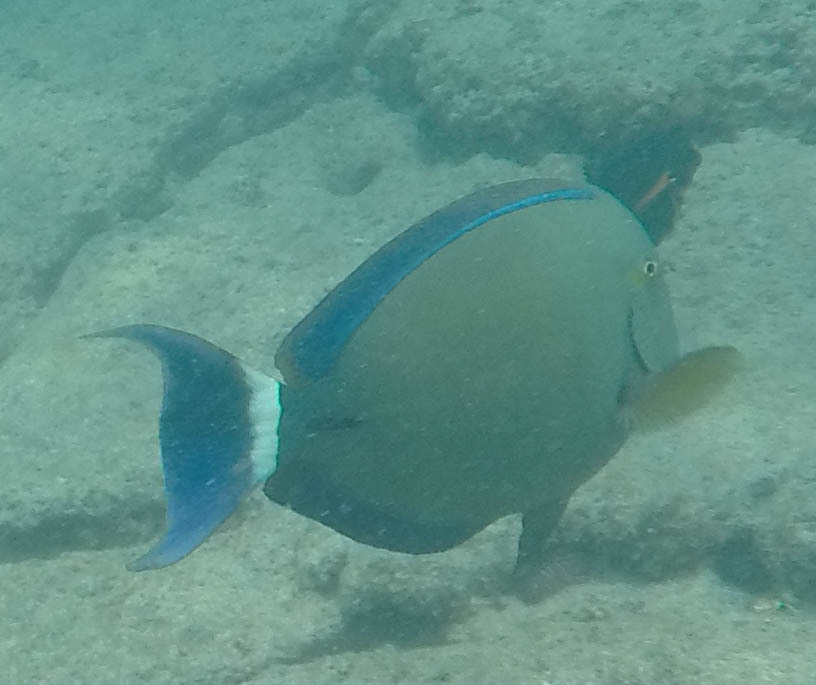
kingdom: Animalia
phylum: Chordata
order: Perciformes
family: Acanthuridae
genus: Acanthurus
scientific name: Acanthurus blochii
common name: Blue-banded pualu
